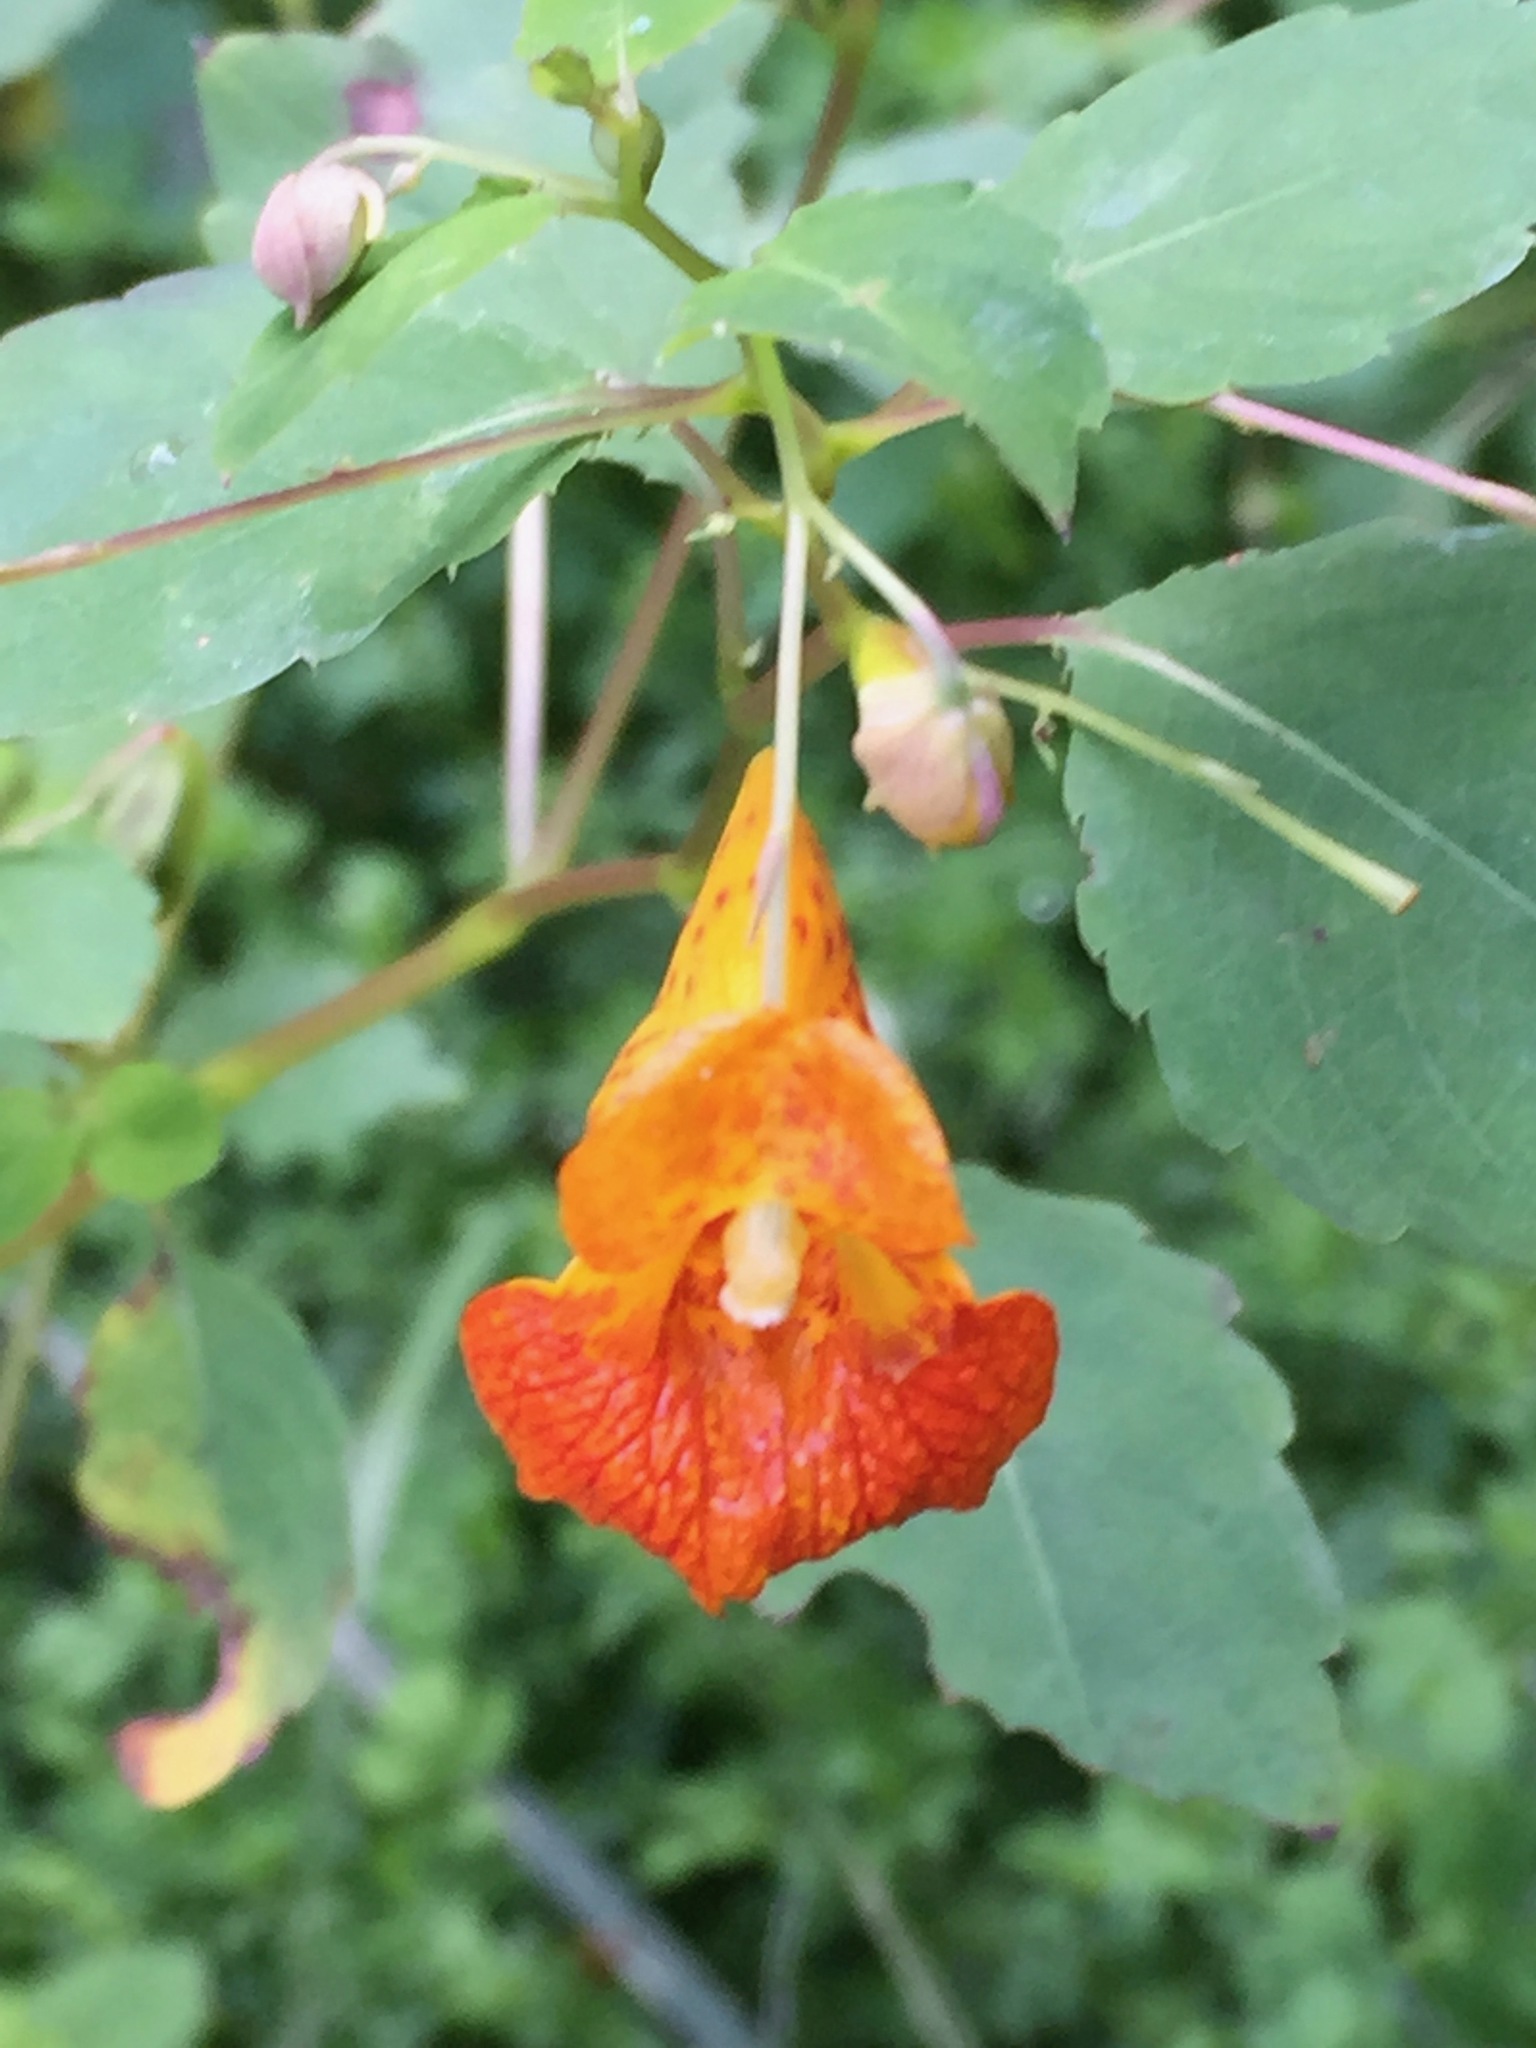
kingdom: Plantae
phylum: Tracheophyta
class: Magnoliopsida
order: Ericales
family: Balsaminaceae
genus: Impatiens
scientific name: Impatiens capensis
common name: Orange balsam
